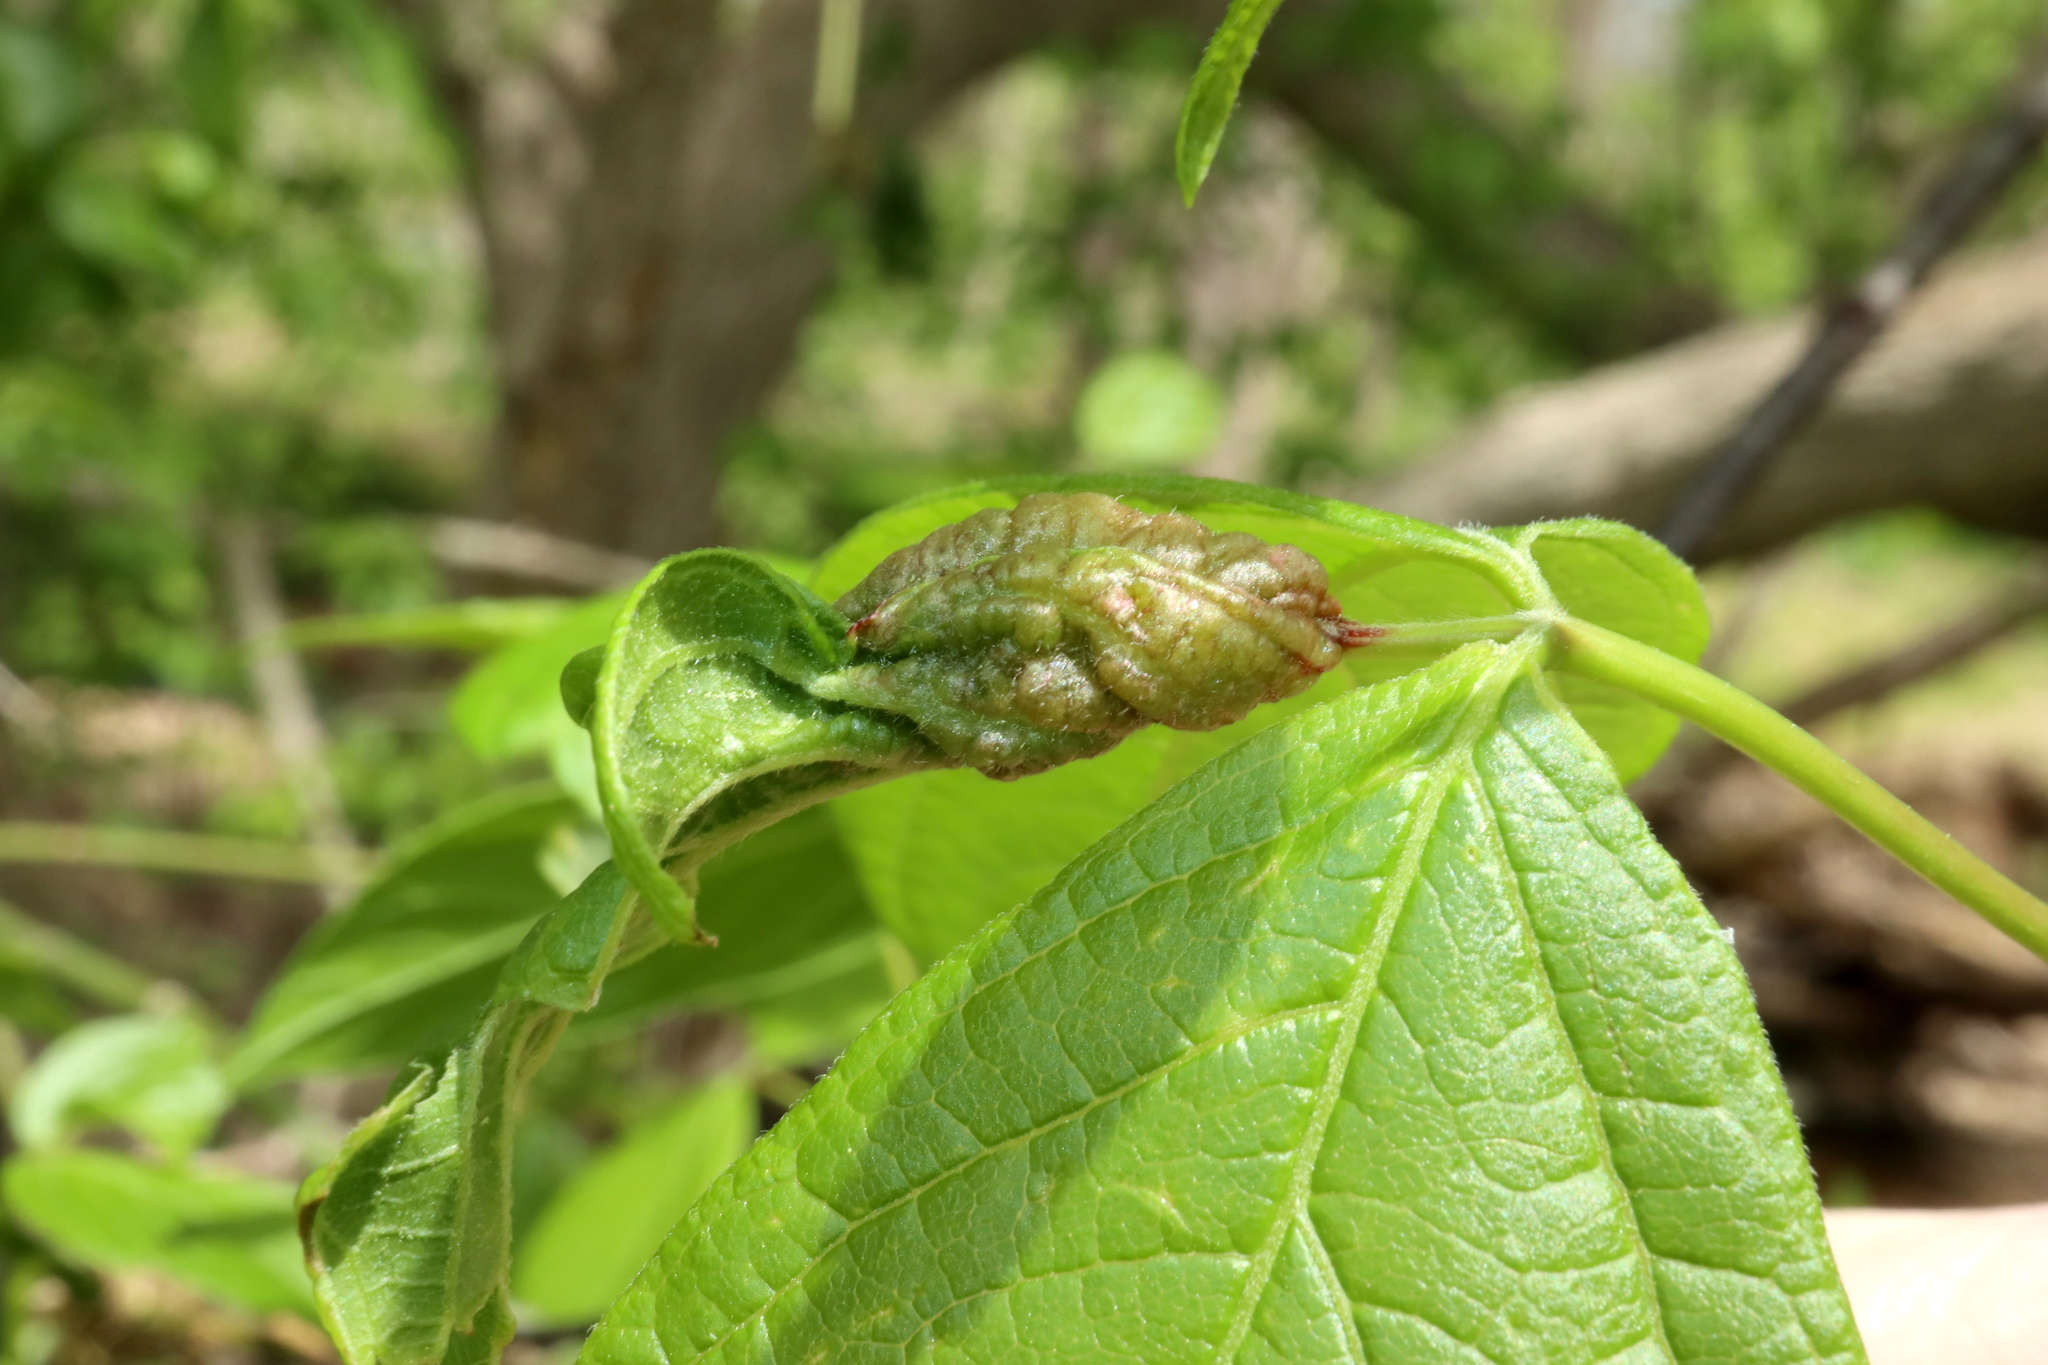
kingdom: Animalia
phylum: Arthropoda
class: Insecta
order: Diptera
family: Cecidomyiidae
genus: Contarinia
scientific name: Contarinia negundinis
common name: Boxelder budgall midge
